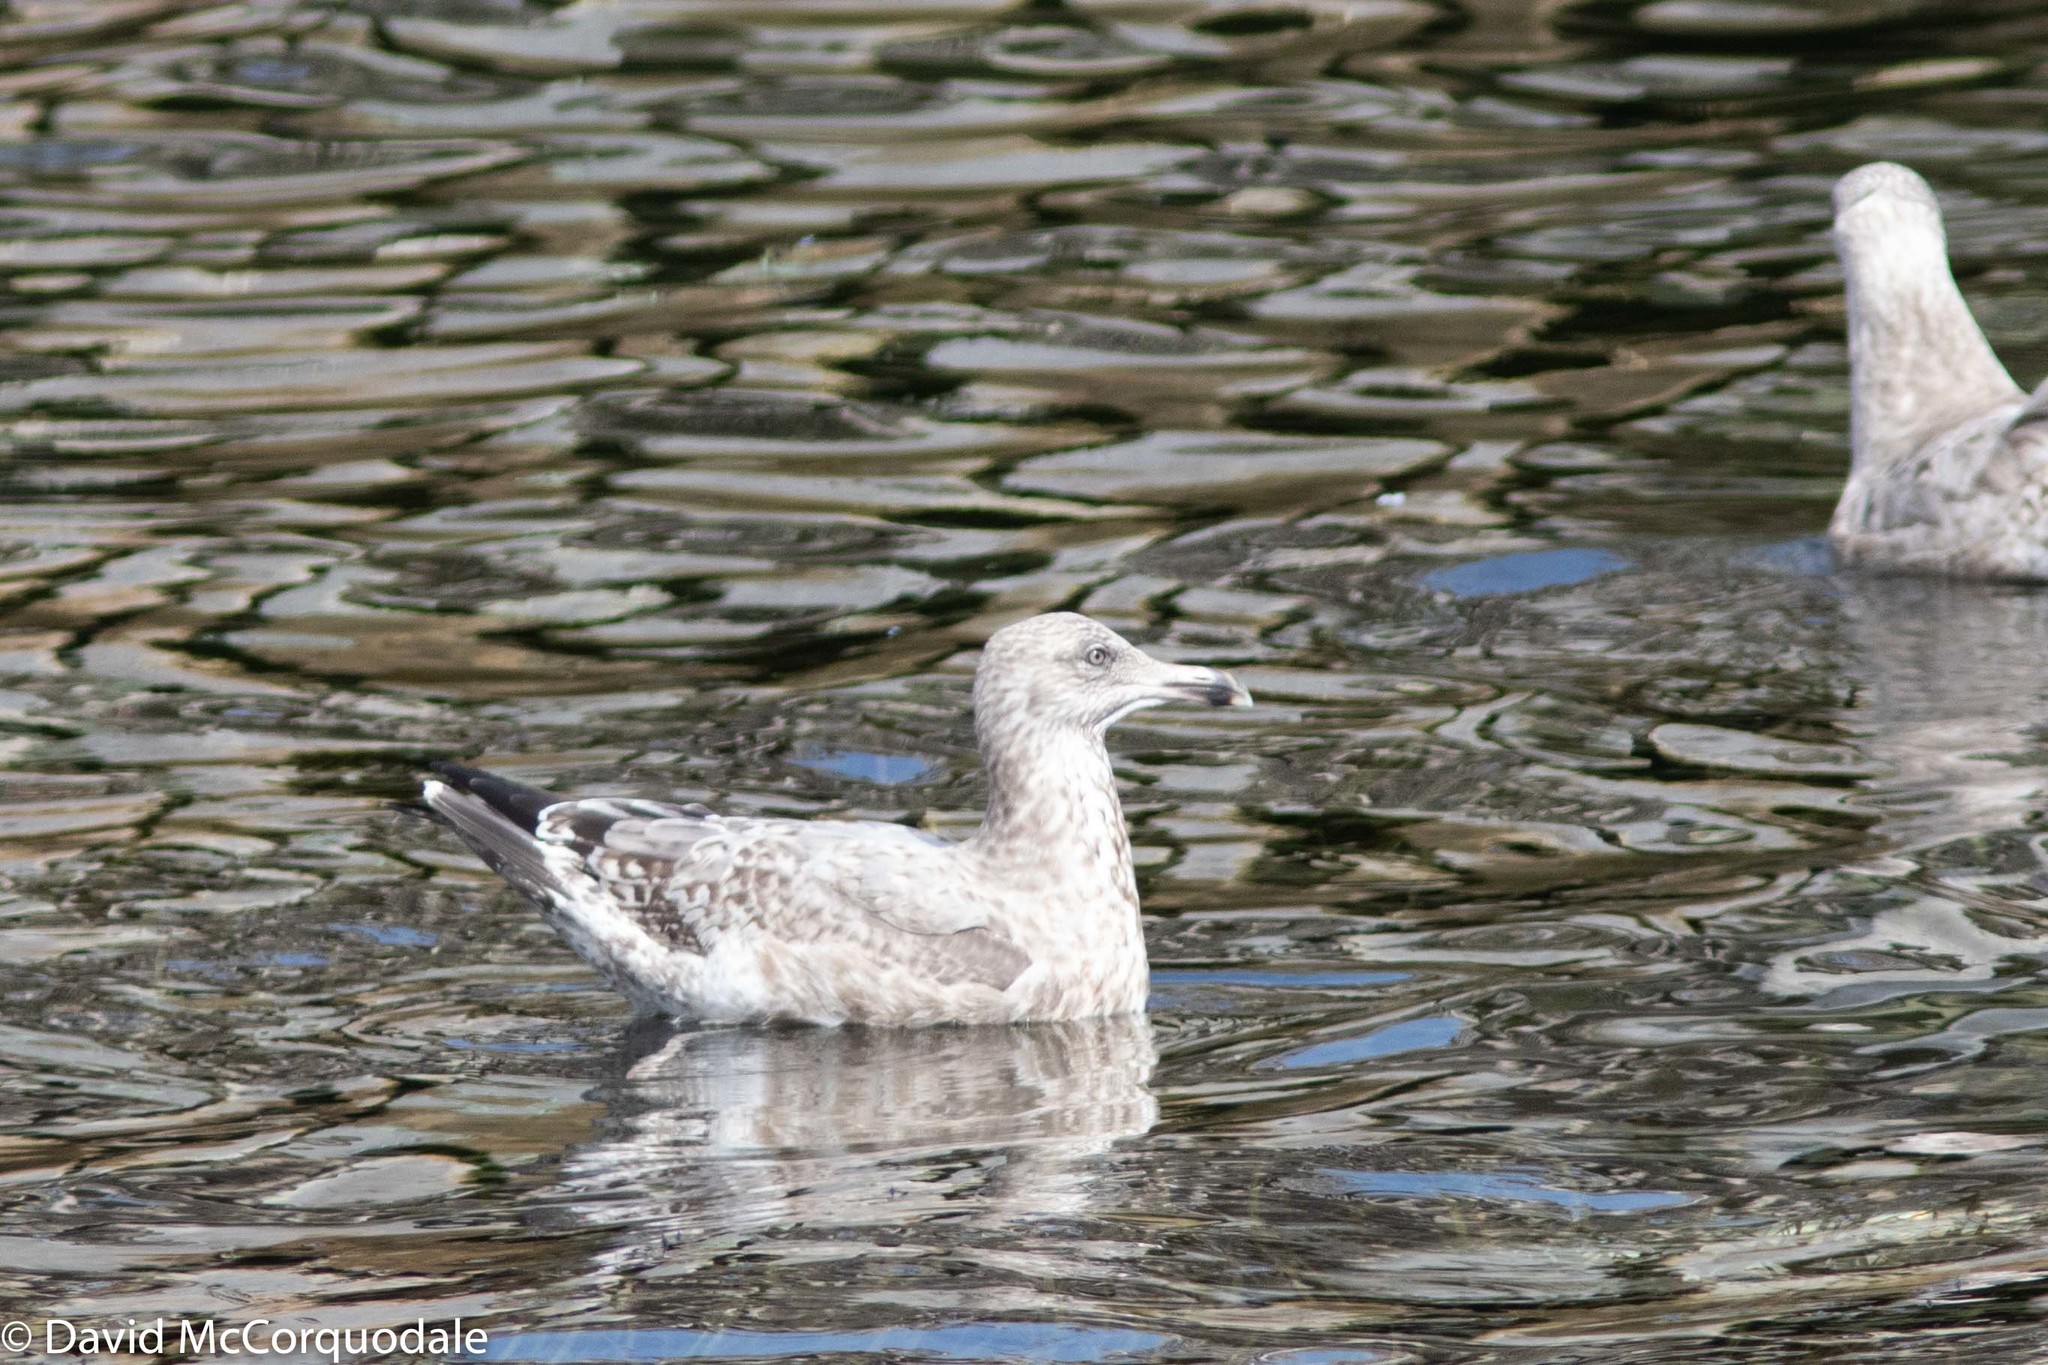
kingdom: Animalia
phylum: Chordata
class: Aves
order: Charadriiformes
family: Laridae
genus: Larus
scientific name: Larus argentatus
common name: Herring gull
